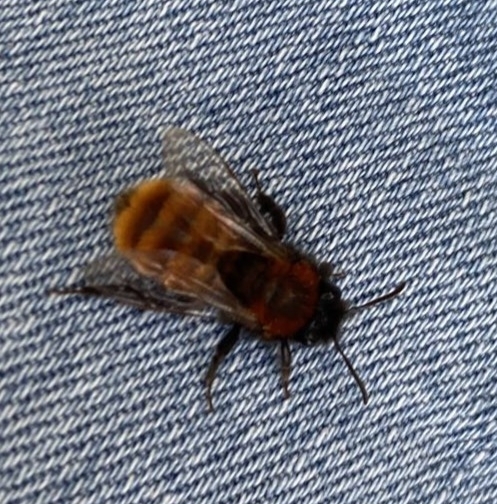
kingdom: Animalia
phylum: Arthropoda
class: Insecta
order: Hymenoptera
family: Andrenidae
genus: Andrena
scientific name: Andrena fulva
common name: Tawny mining bee
